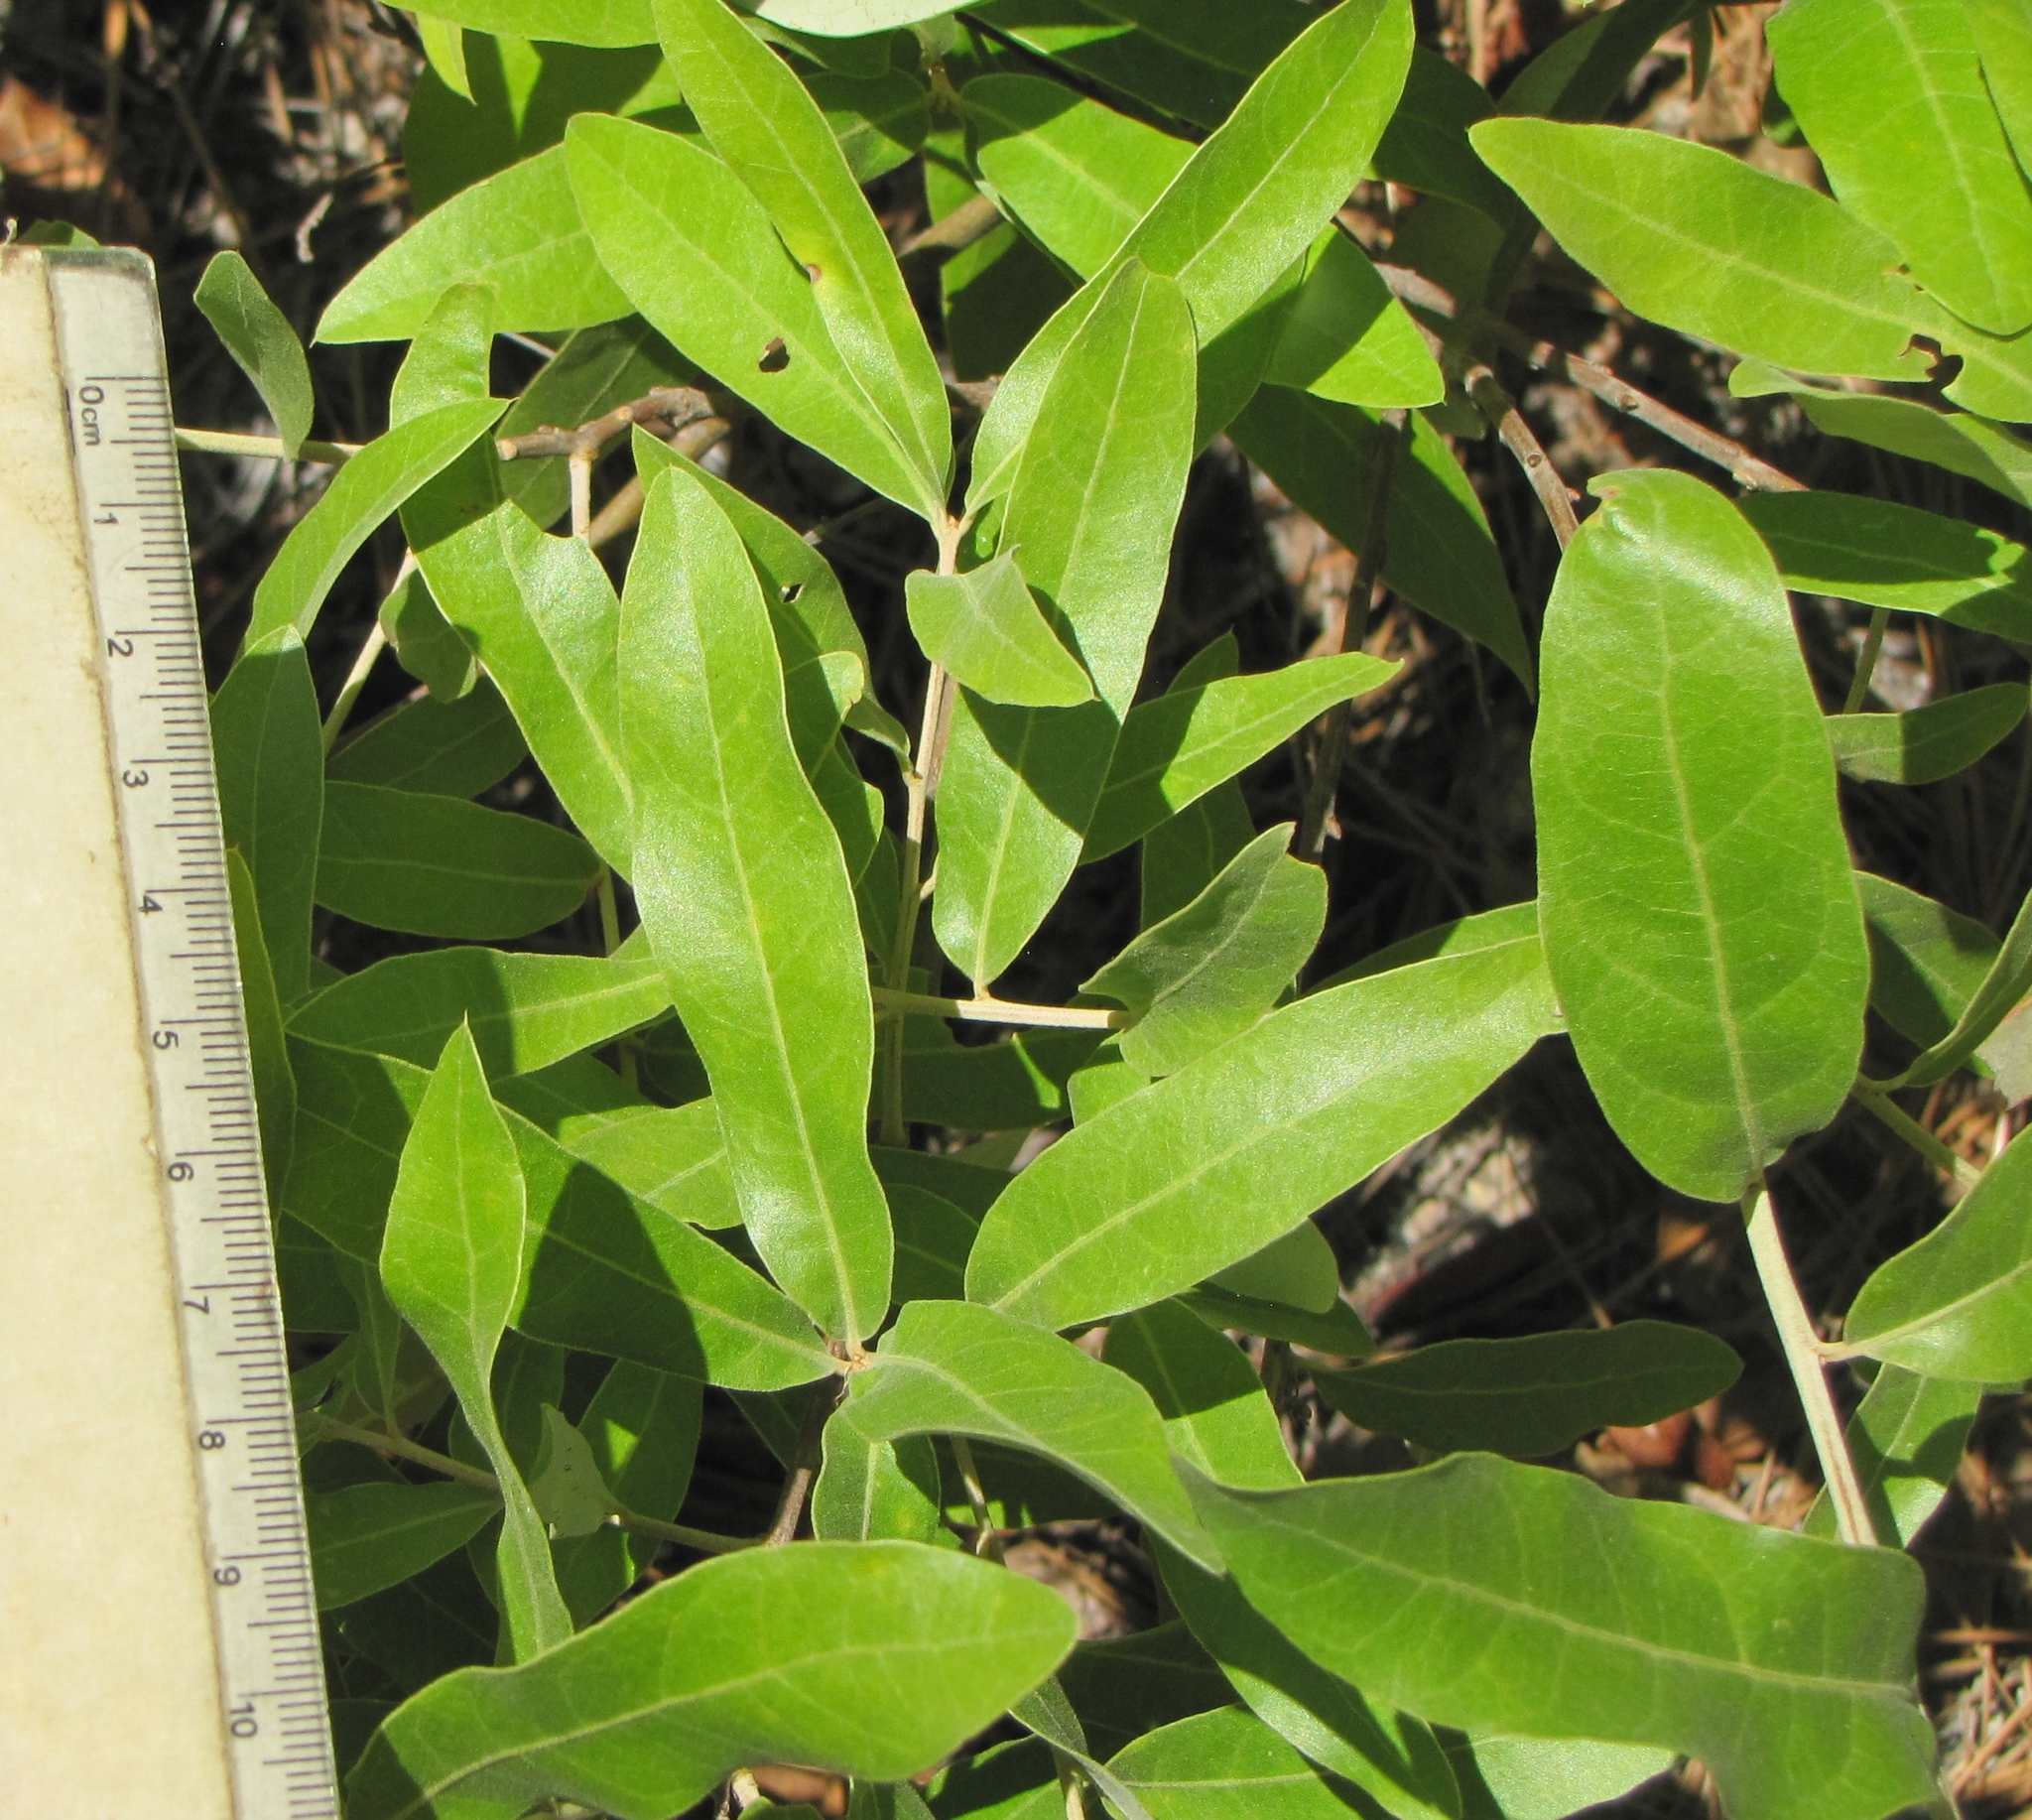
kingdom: Plantae
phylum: Tracheophyta
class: Magnoliopsida
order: Fagales
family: Fagaceae
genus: Quercus
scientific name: Quercus incana
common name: Bluejack oak
